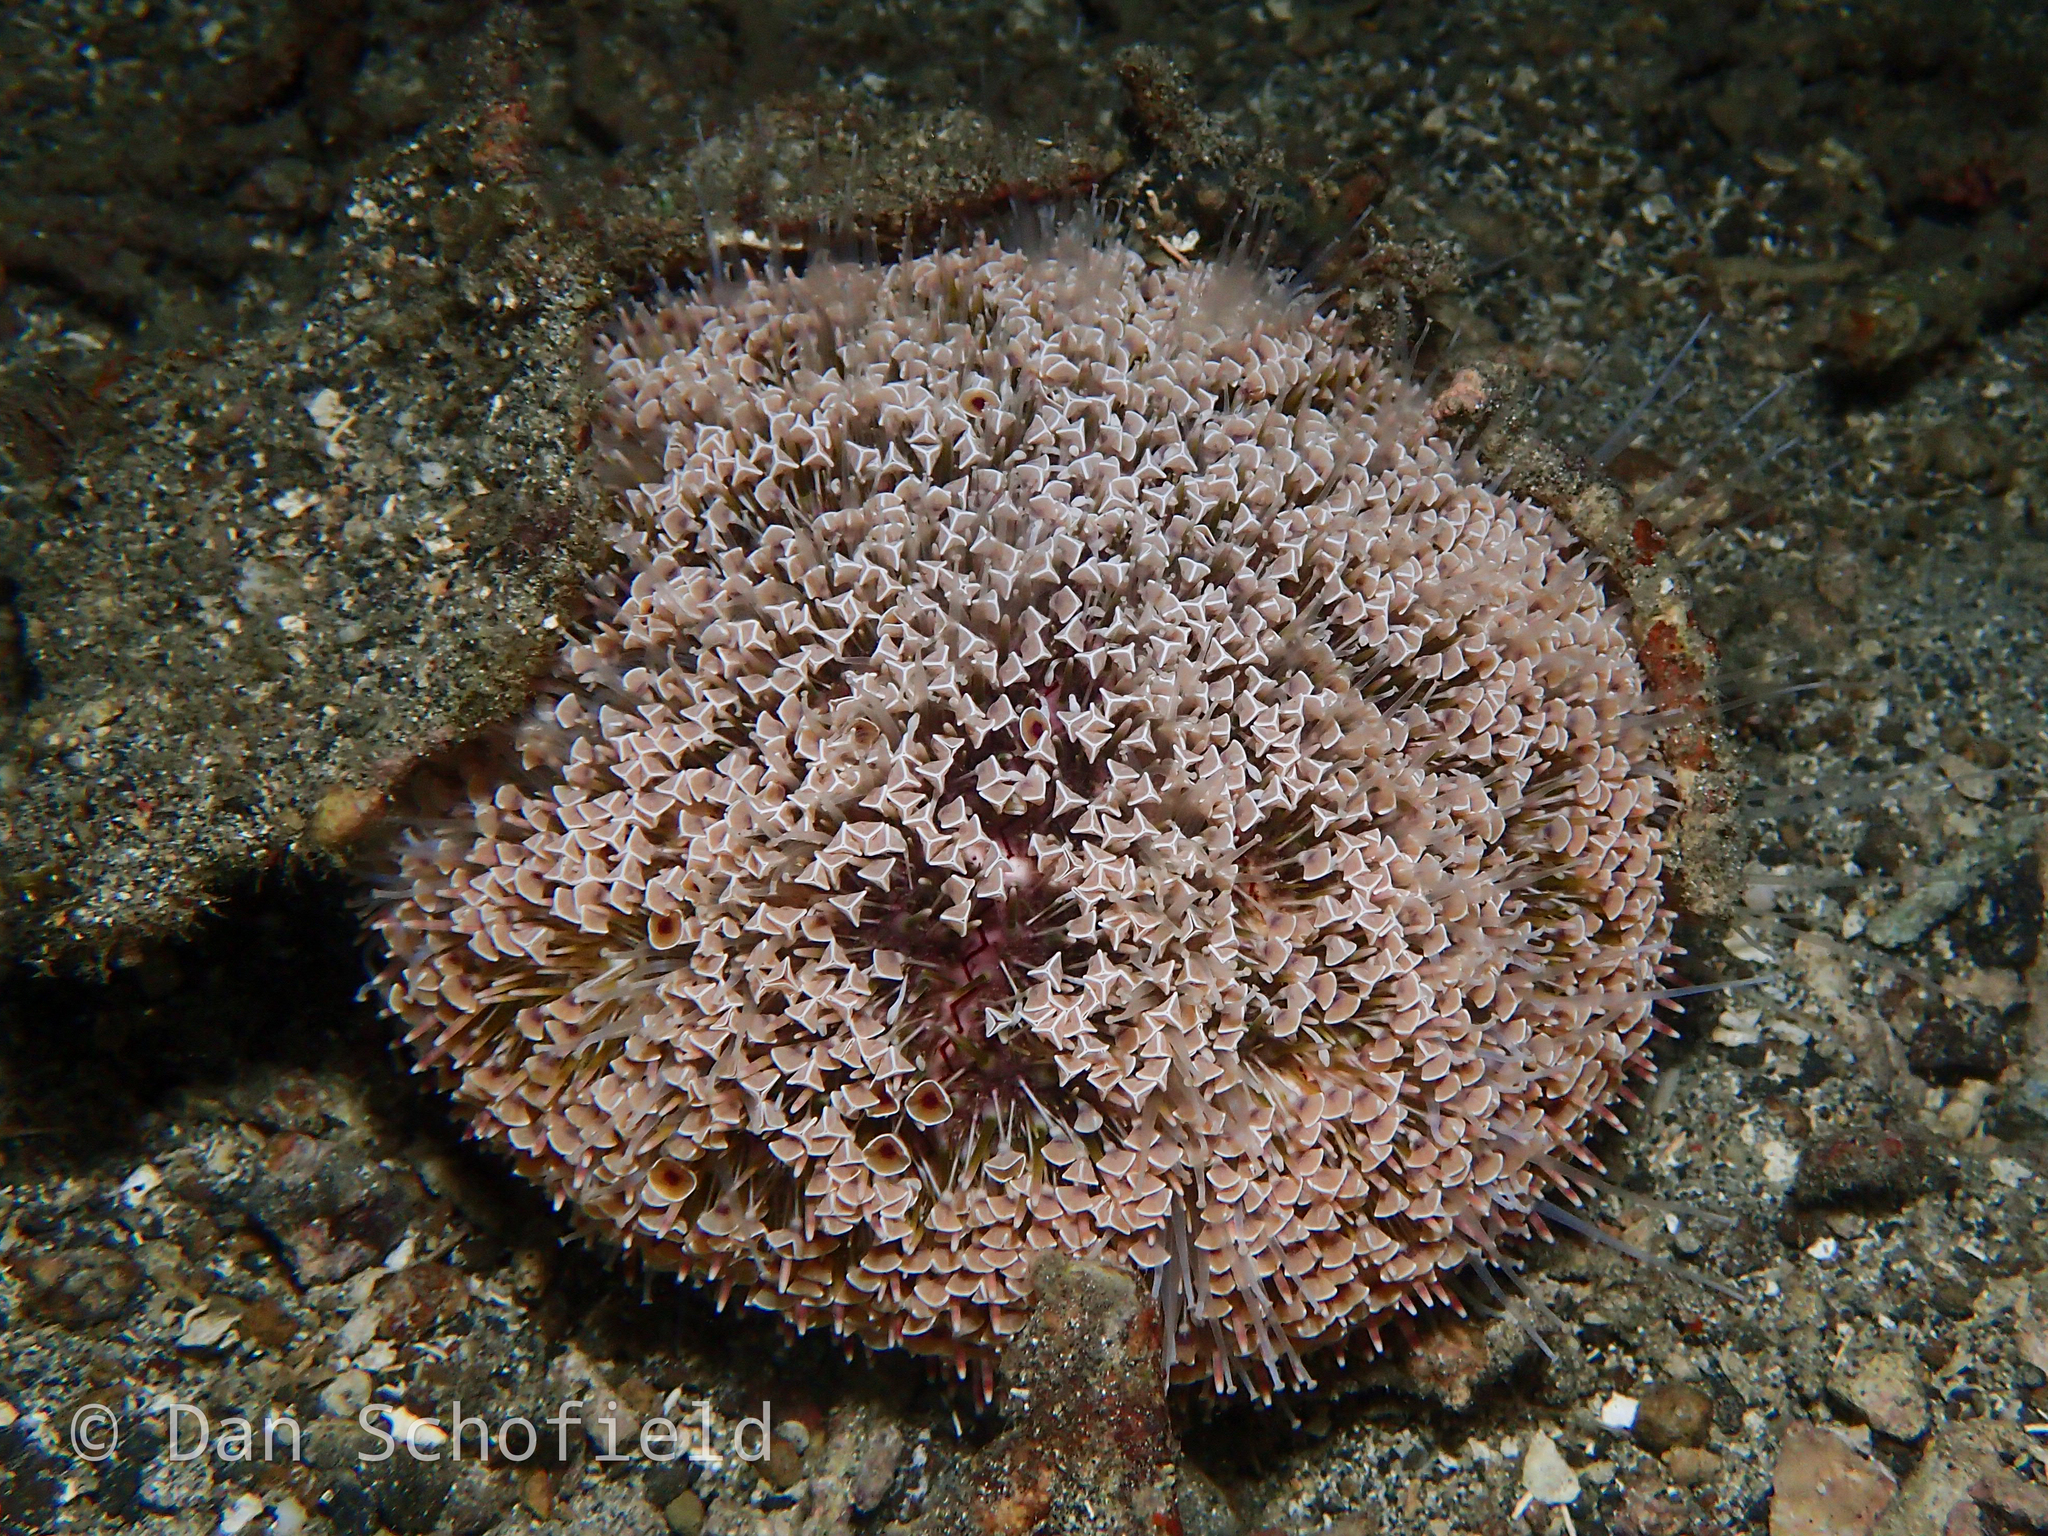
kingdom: Animalia
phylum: Echinodermata
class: Echinoidea
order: Camarodonta
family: Toxopneustidae
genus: Toxopneustes
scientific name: Toxopneustes pileolus
